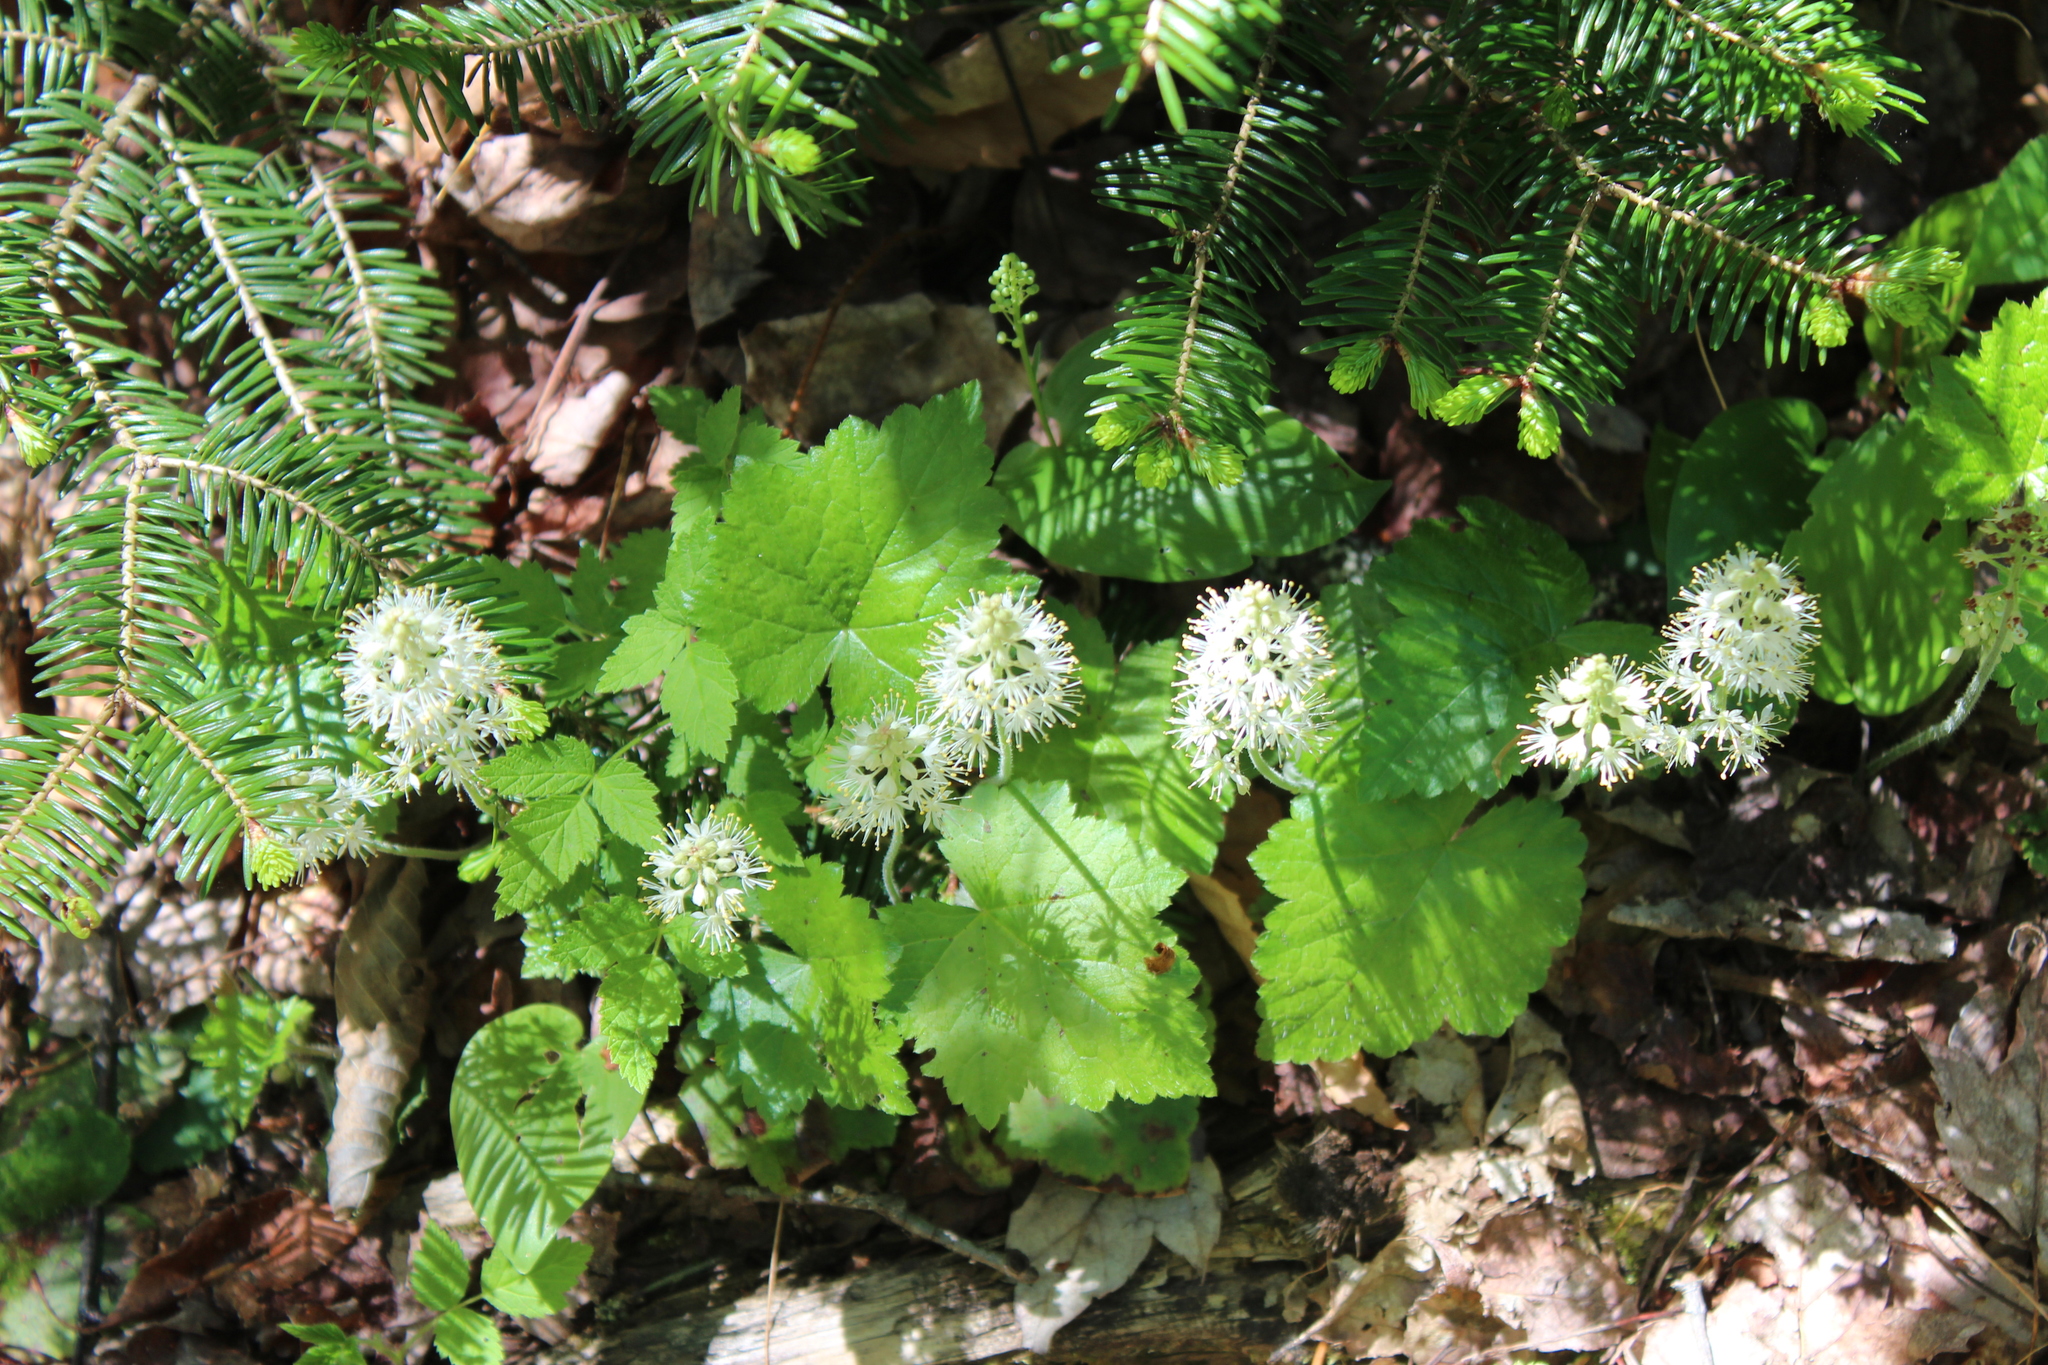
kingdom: Plantae
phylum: Tracheophyta
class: Magnoliopsida
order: Saxifragales
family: Saxifragaceae
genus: Tiarella
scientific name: Tiarella stolonifera
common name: Stoloniferous foamflower
